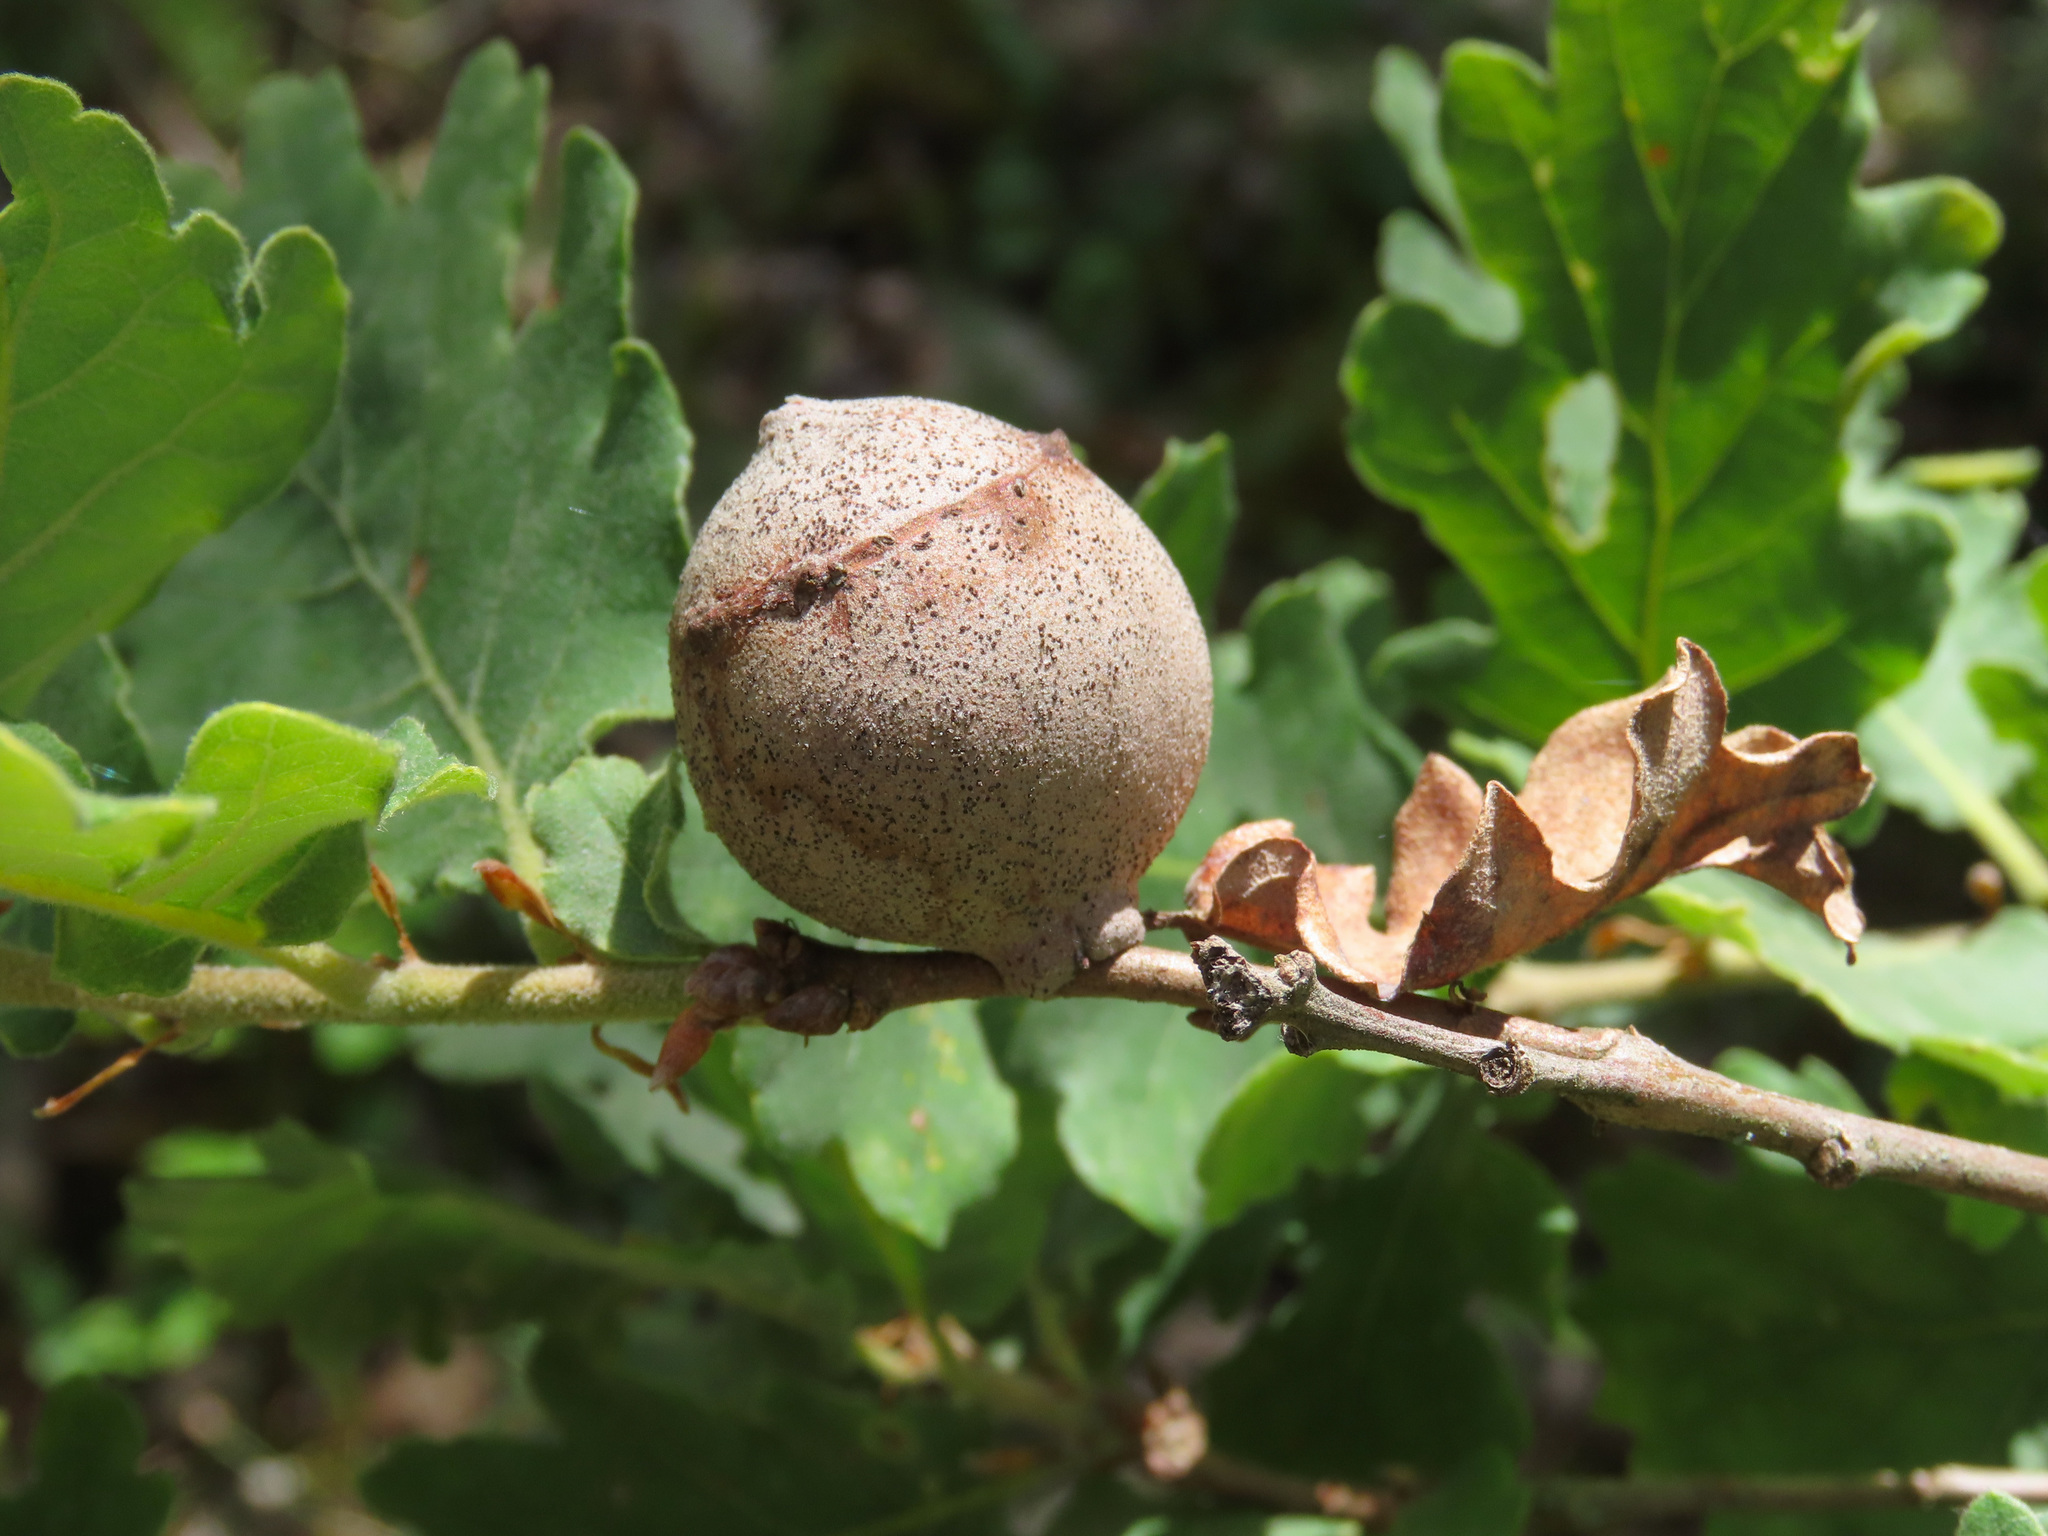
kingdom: Animalia
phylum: Arthropoda
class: Insecta
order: Hymenoptera
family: Cynipidae
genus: Andricus
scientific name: Andricus quercustozae
